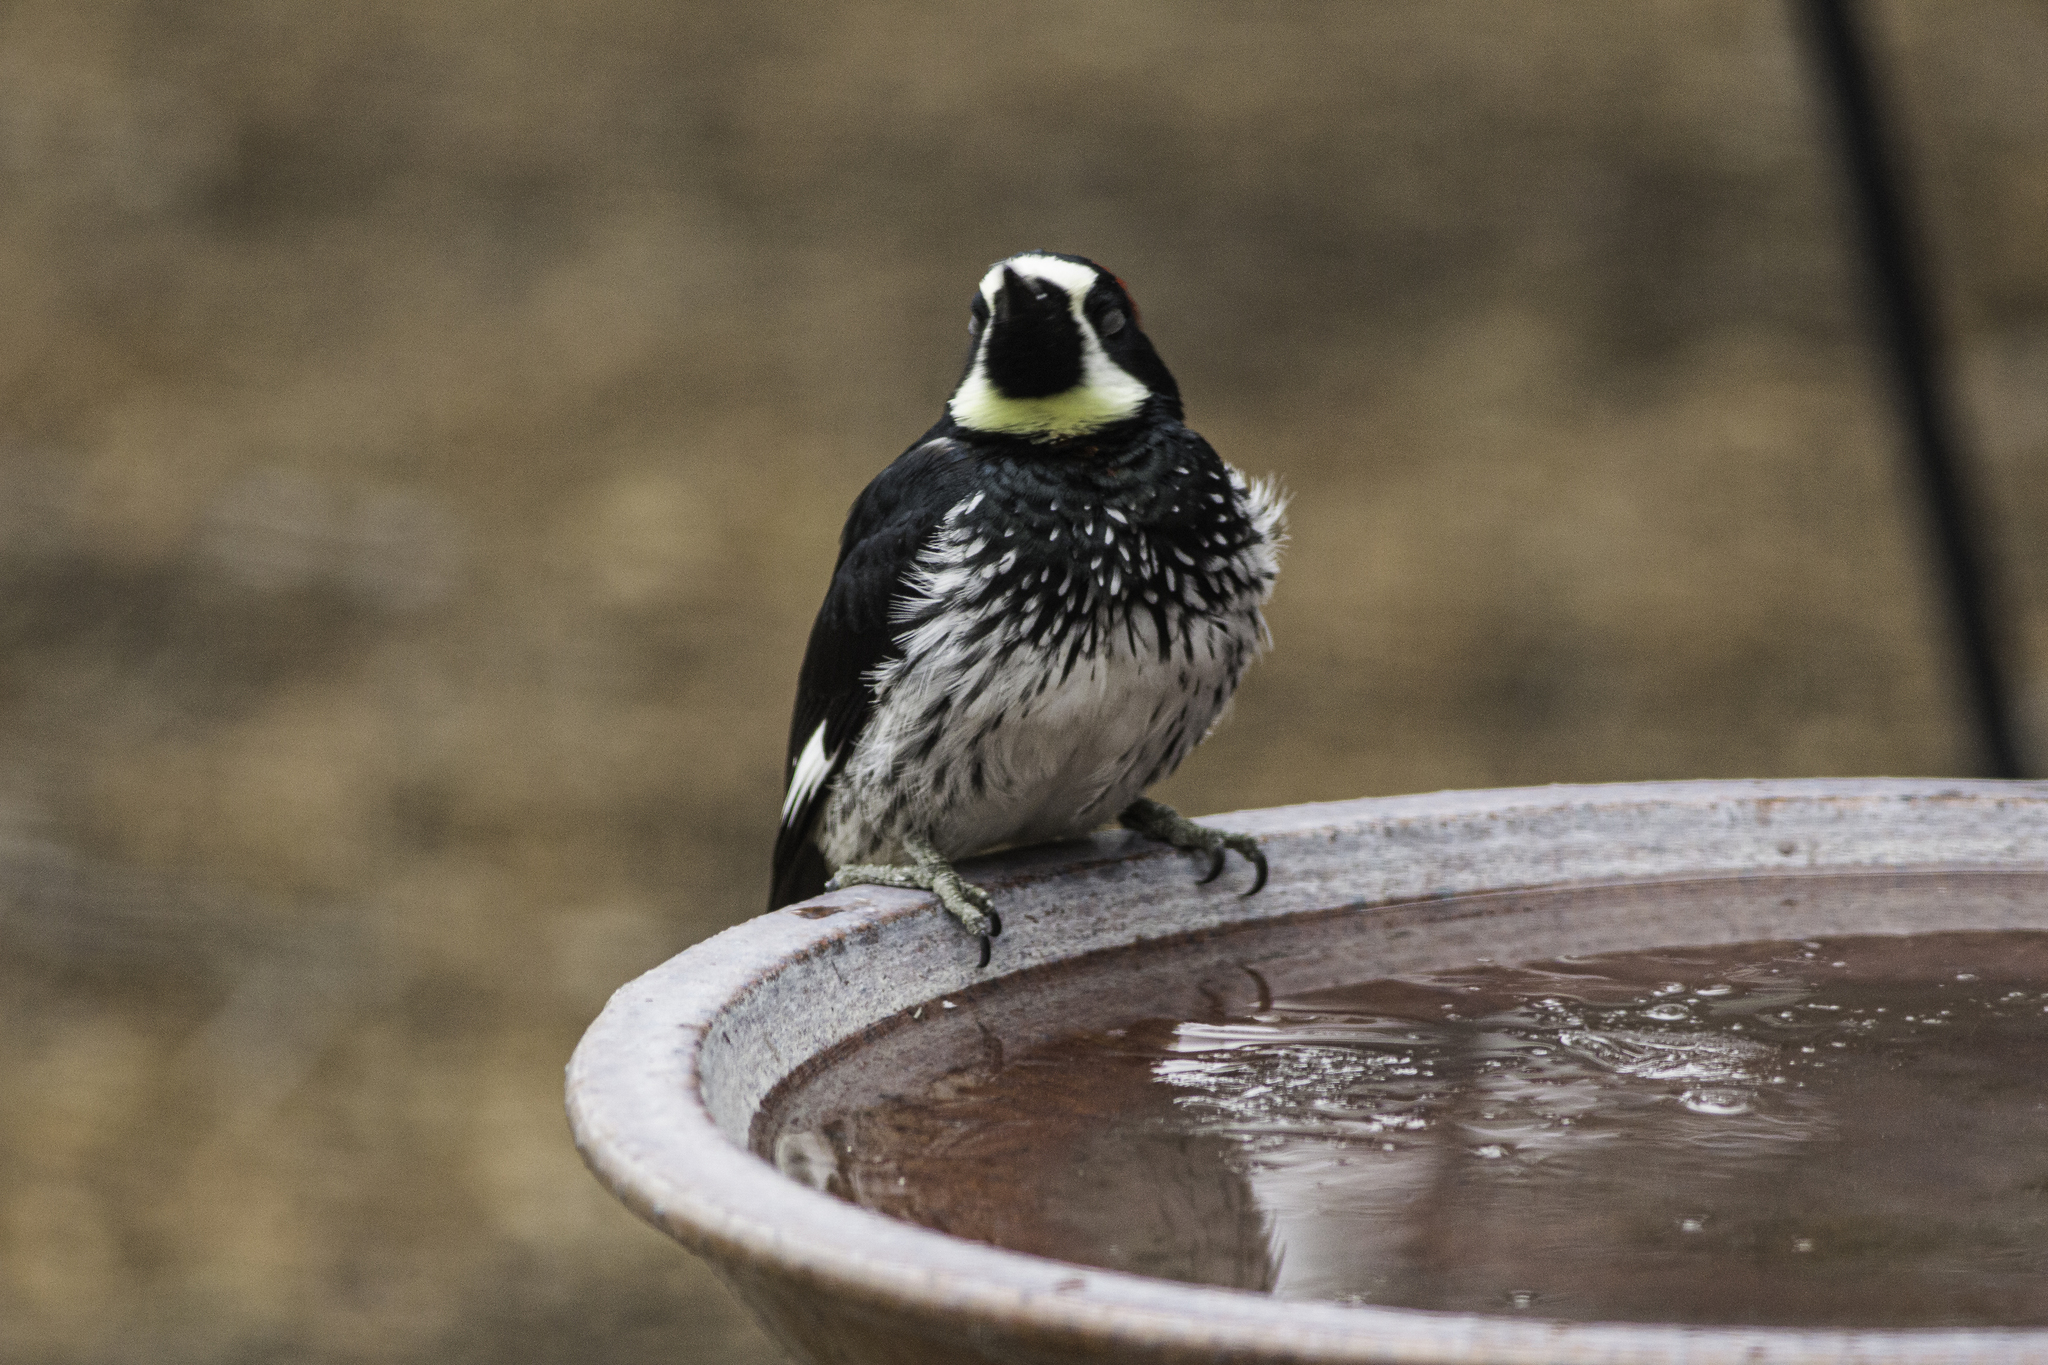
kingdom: Animalia
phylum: Chordata
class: Aves
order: Piciformes
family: Picidae
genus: Melanerpes
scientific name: Melanerpes formicivorus
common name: Acorn woodpecker
